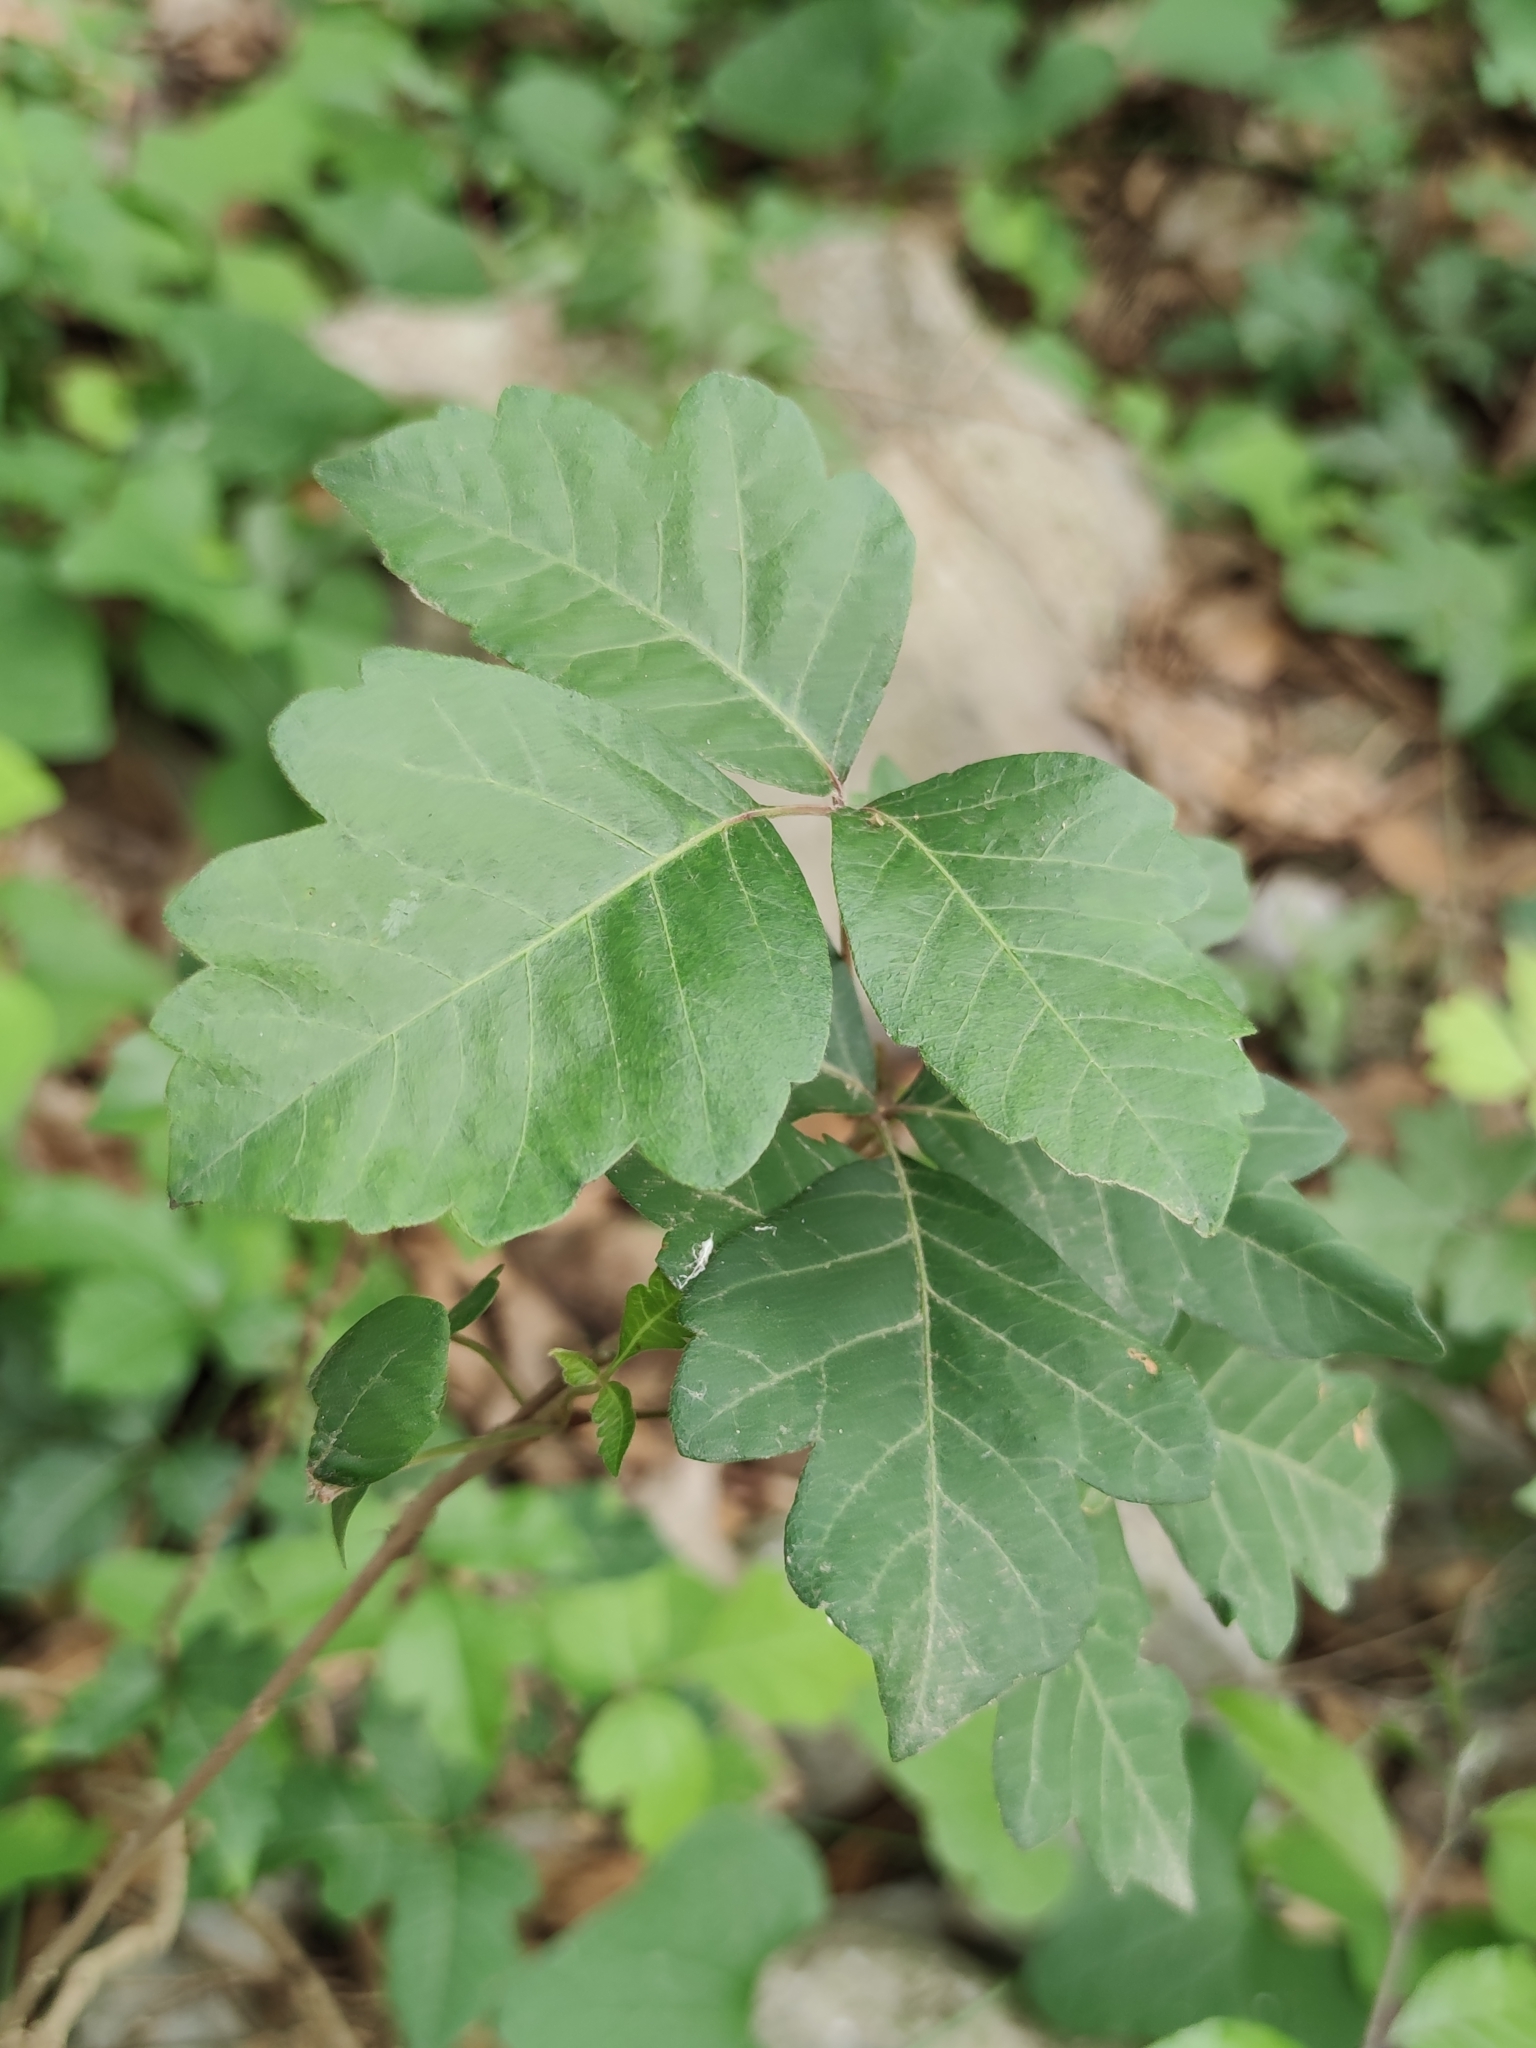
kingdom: Plantae
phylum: Tracheophyta
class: Magnoliopsida
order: Sapindales
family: Anacardiaceae
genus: Toxicodendron
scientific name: Toxicodendron pubescens
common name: Eastern poison-oak
